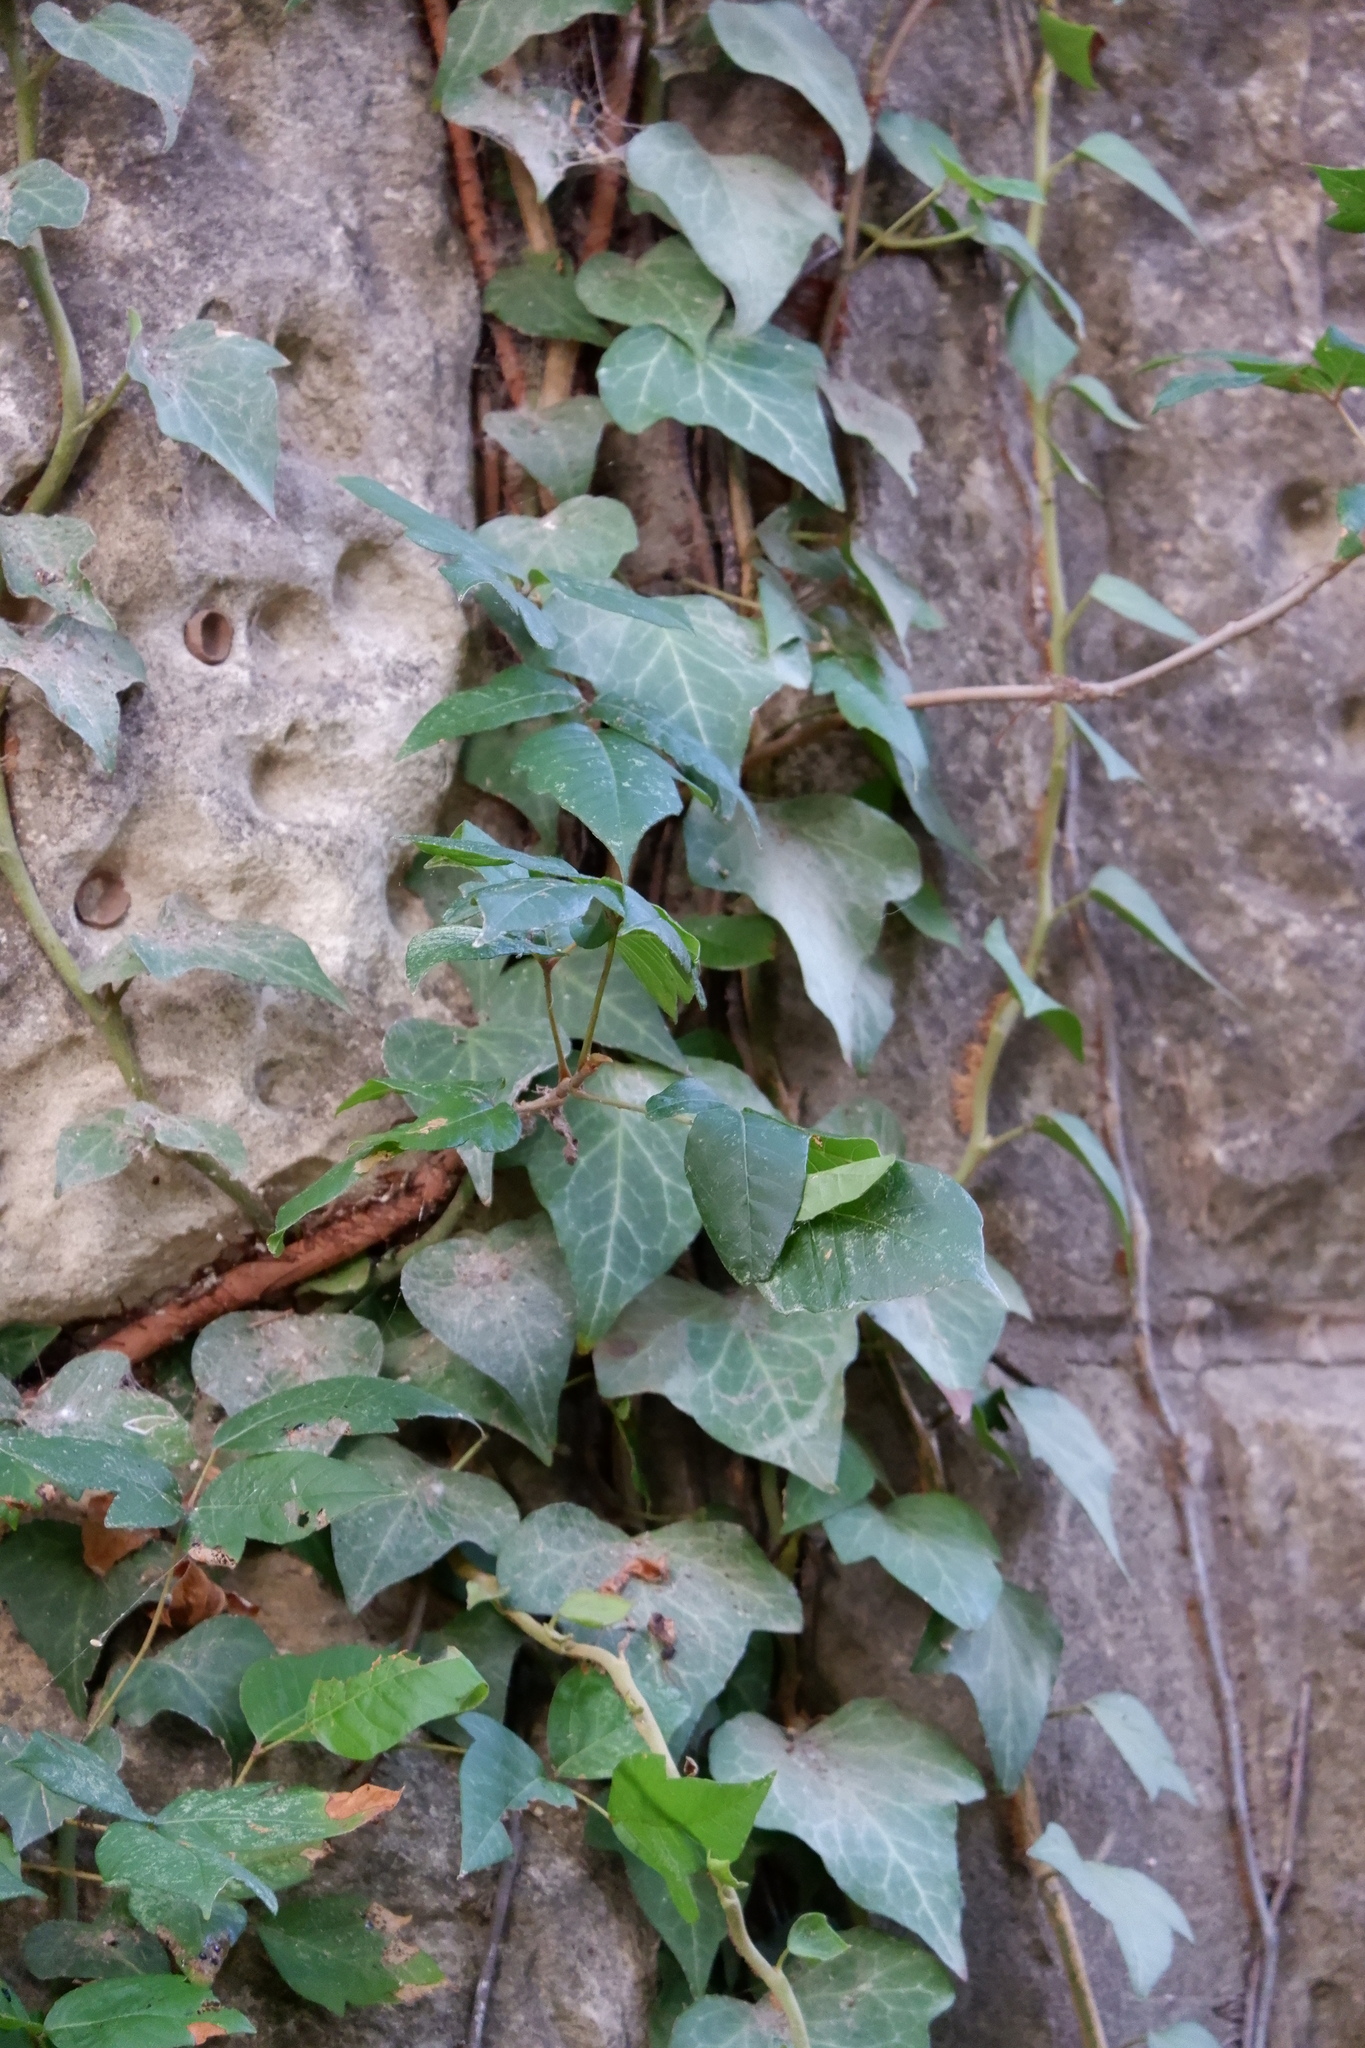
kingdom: Plantae
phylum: Tracheophyta
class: Magnoliopsida
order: Apiales
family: Araliaceae
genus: Hedera
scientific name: Hedera helix
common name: Ivy
